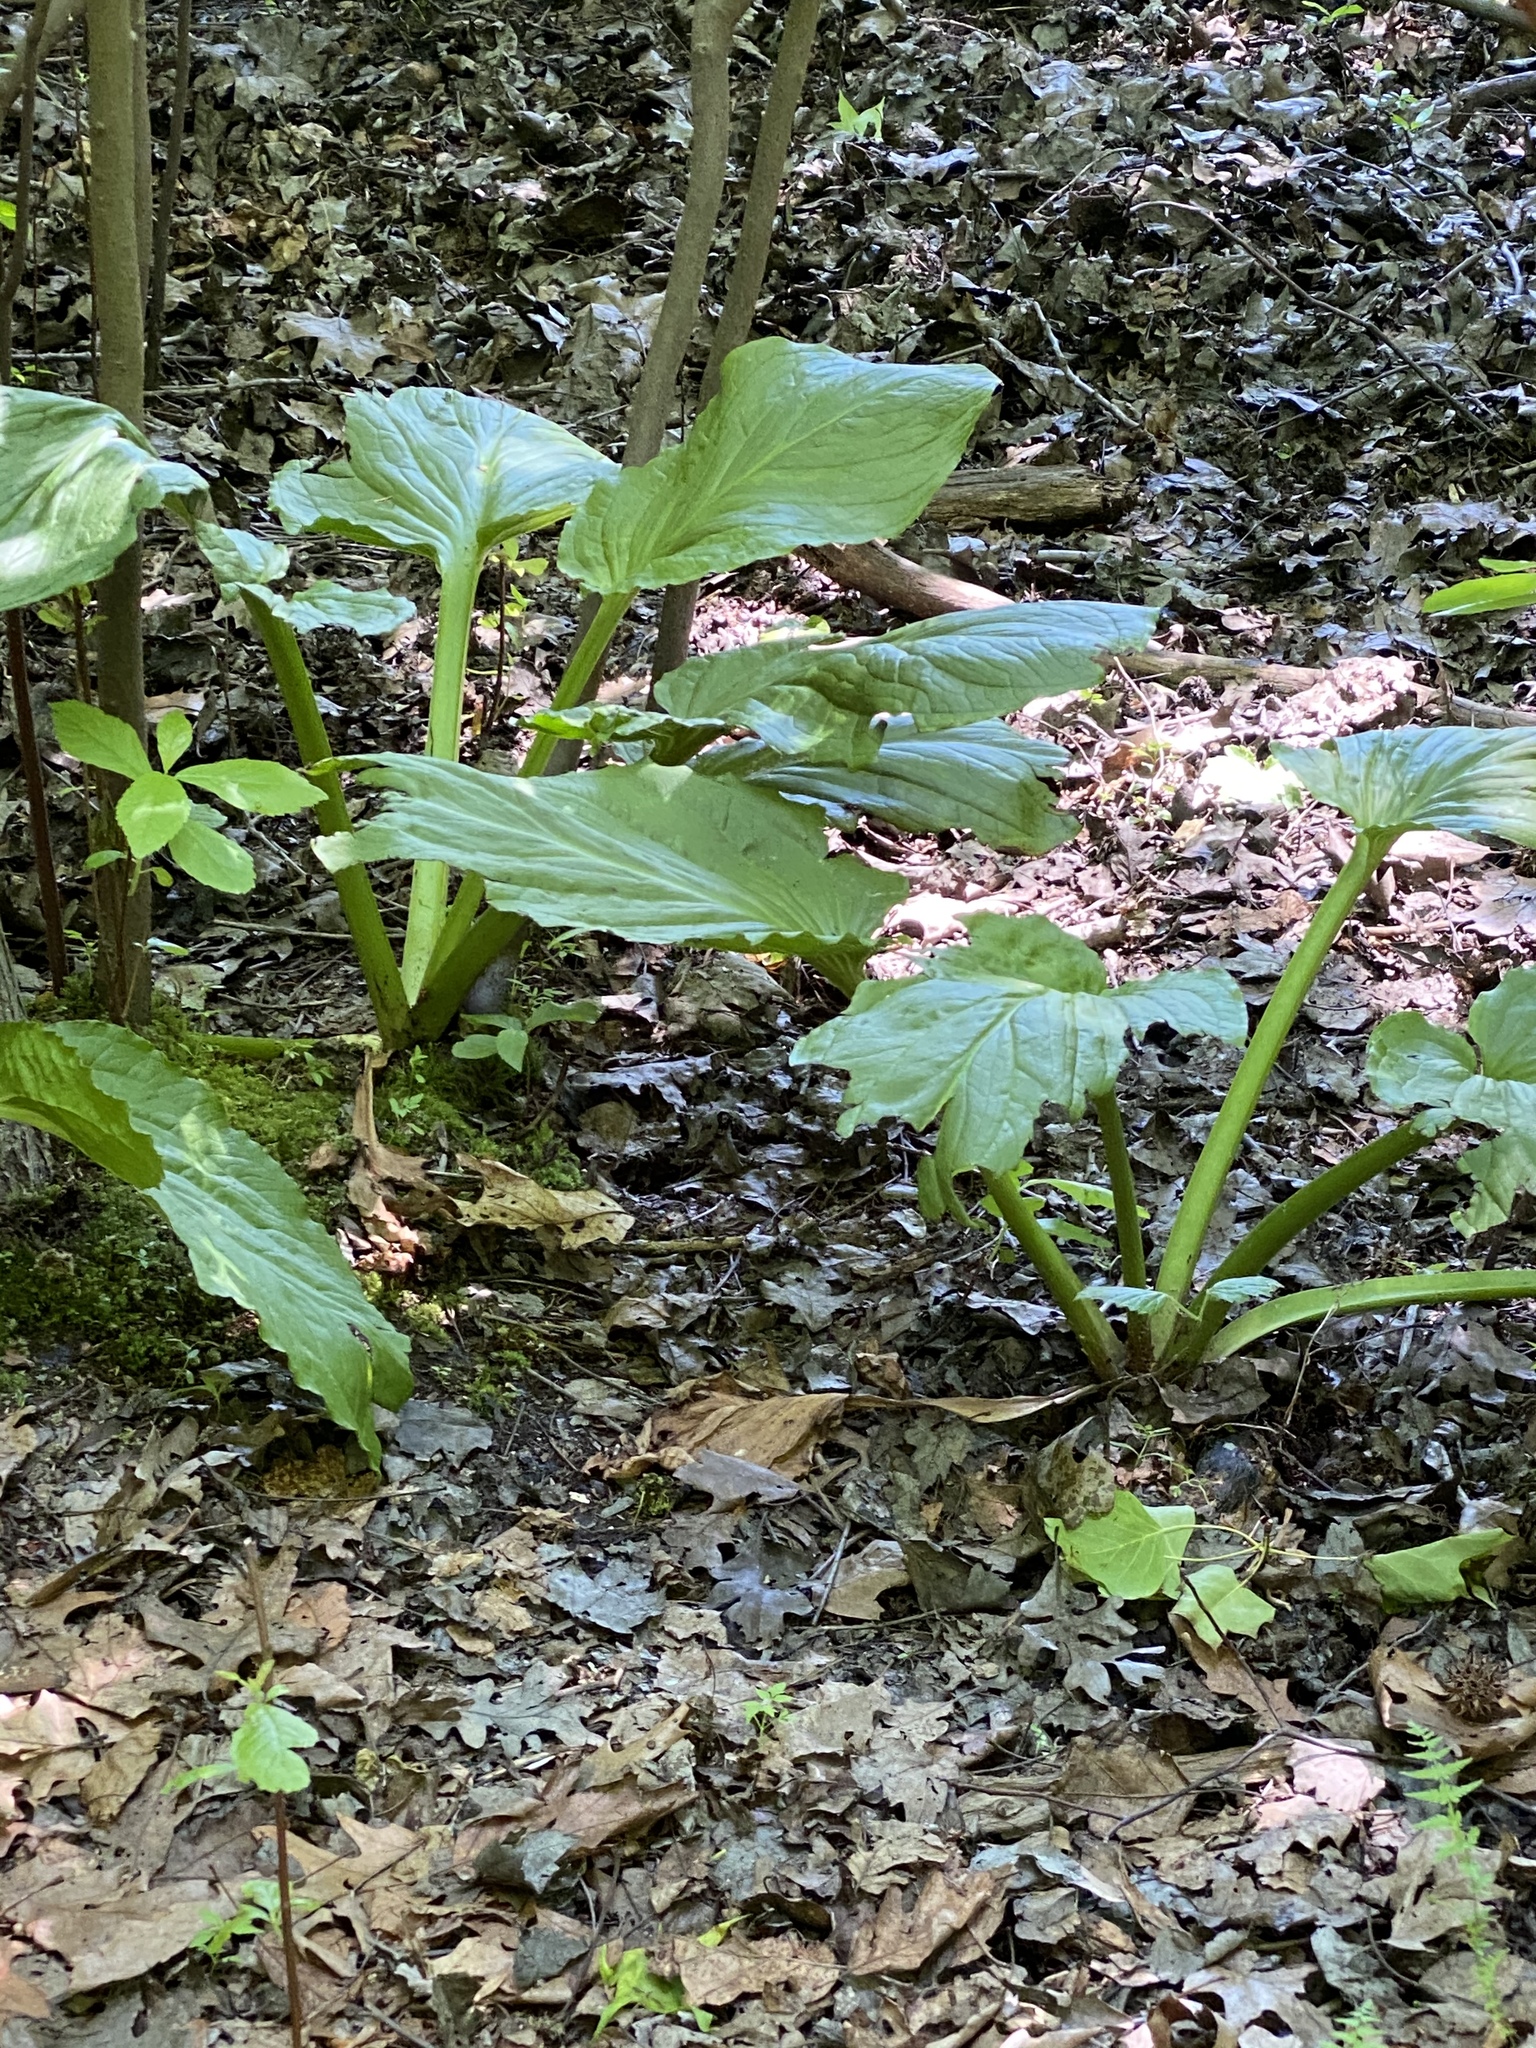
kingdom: Plantae
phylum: Tracheophyta
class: Liliopsida
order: Alismatales
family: Araceae
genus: Symplocarpus
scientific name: Symplocarpus foetidus
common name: Eastern skunk cabbage
